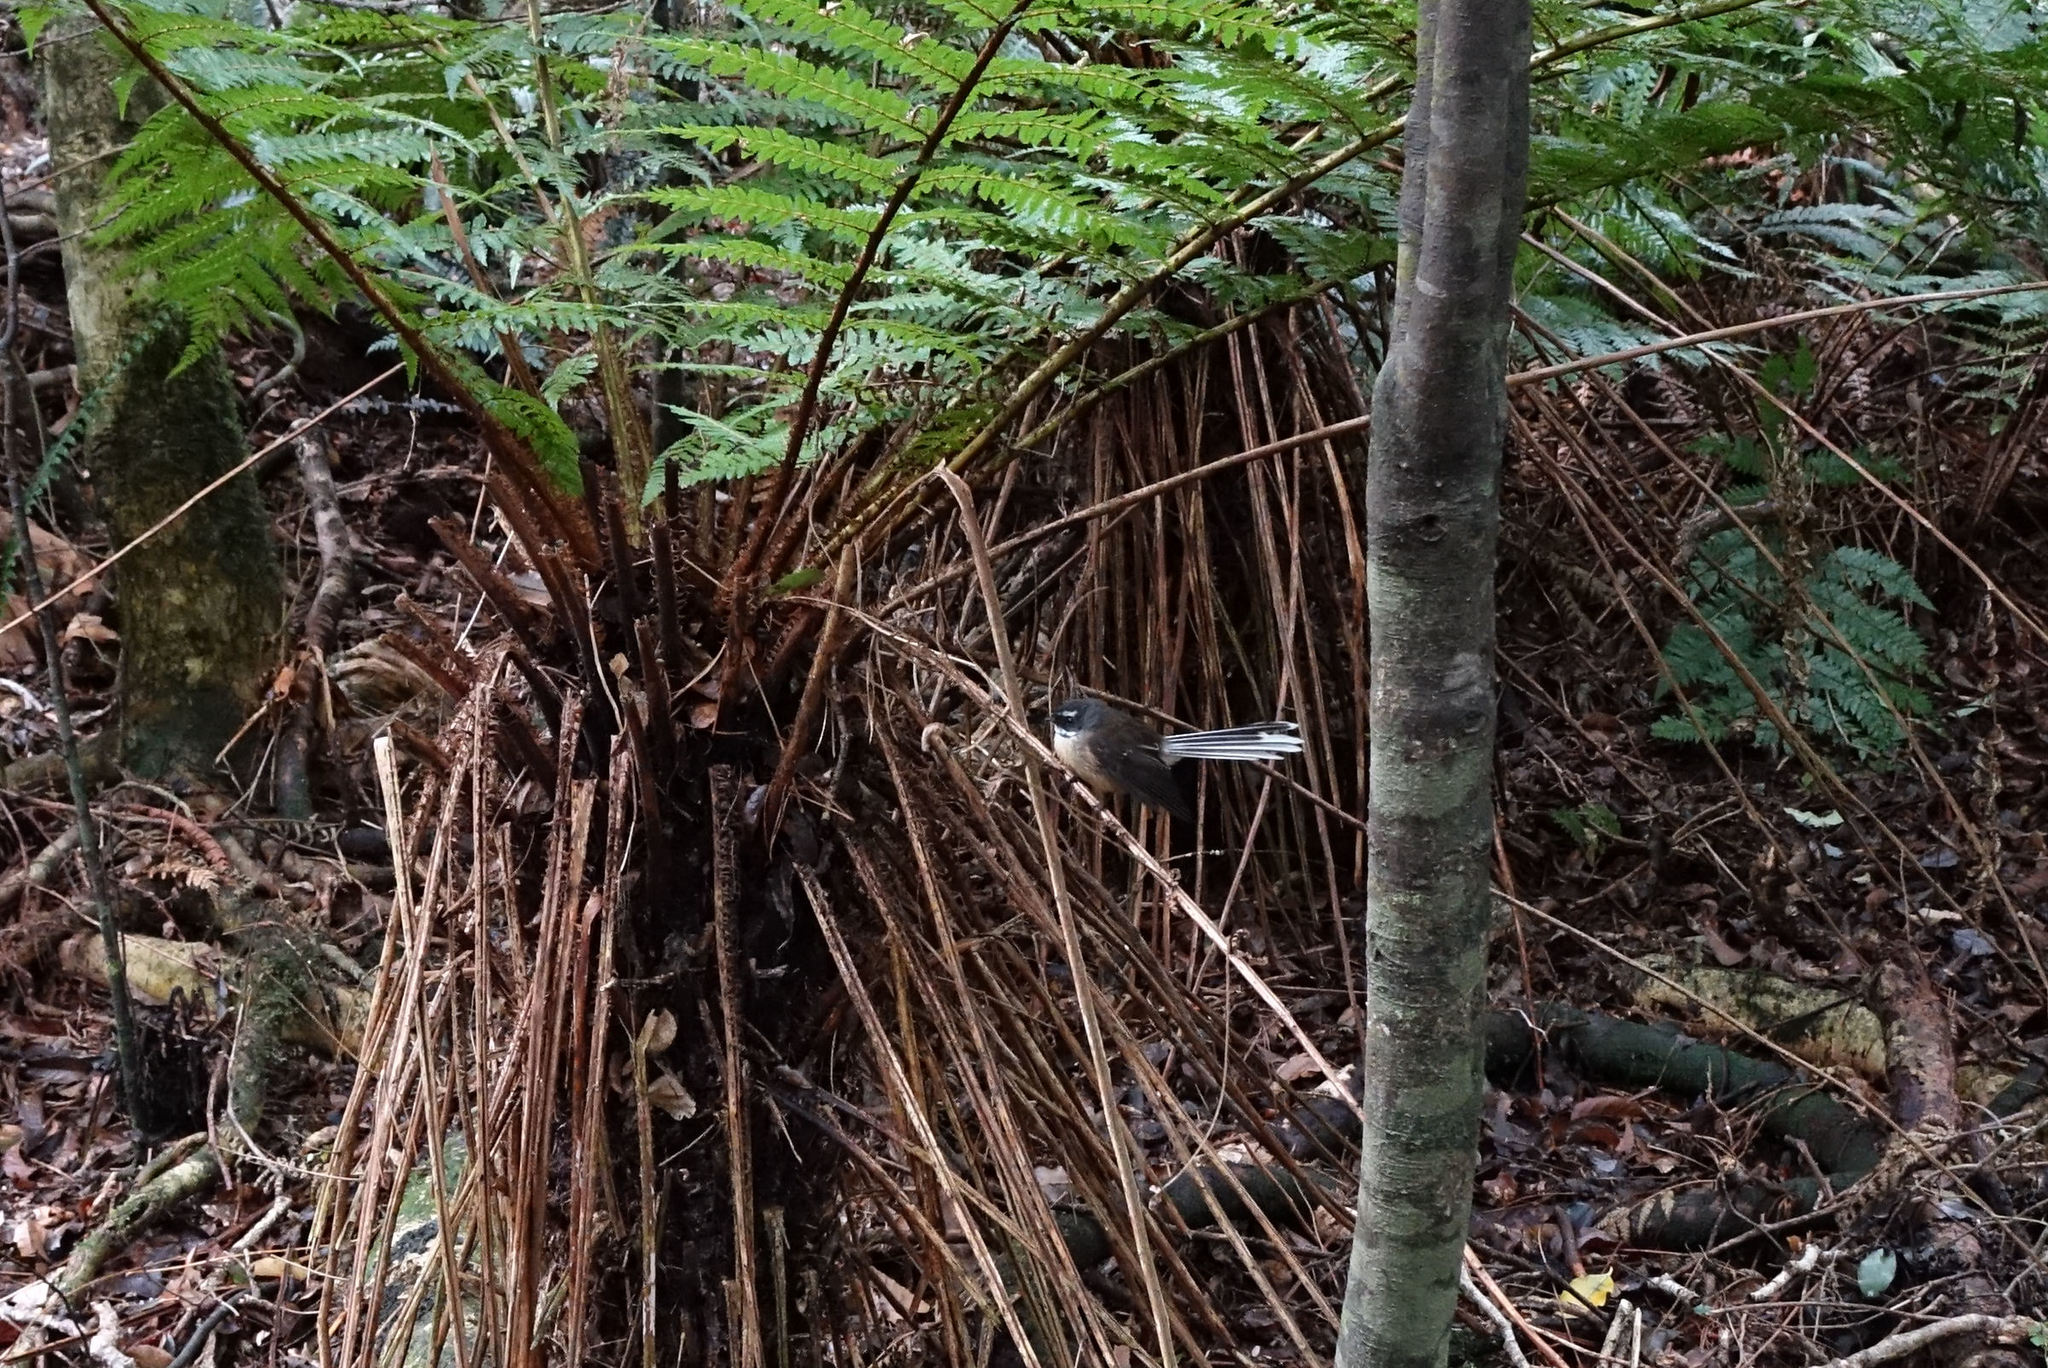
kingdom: Animalia
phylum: Chordata
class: Aves
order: Passeriformes
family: Rhipiduridae
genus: Rhipidura
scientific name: Rhipidura fuliginosa
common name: New zealand fantail
